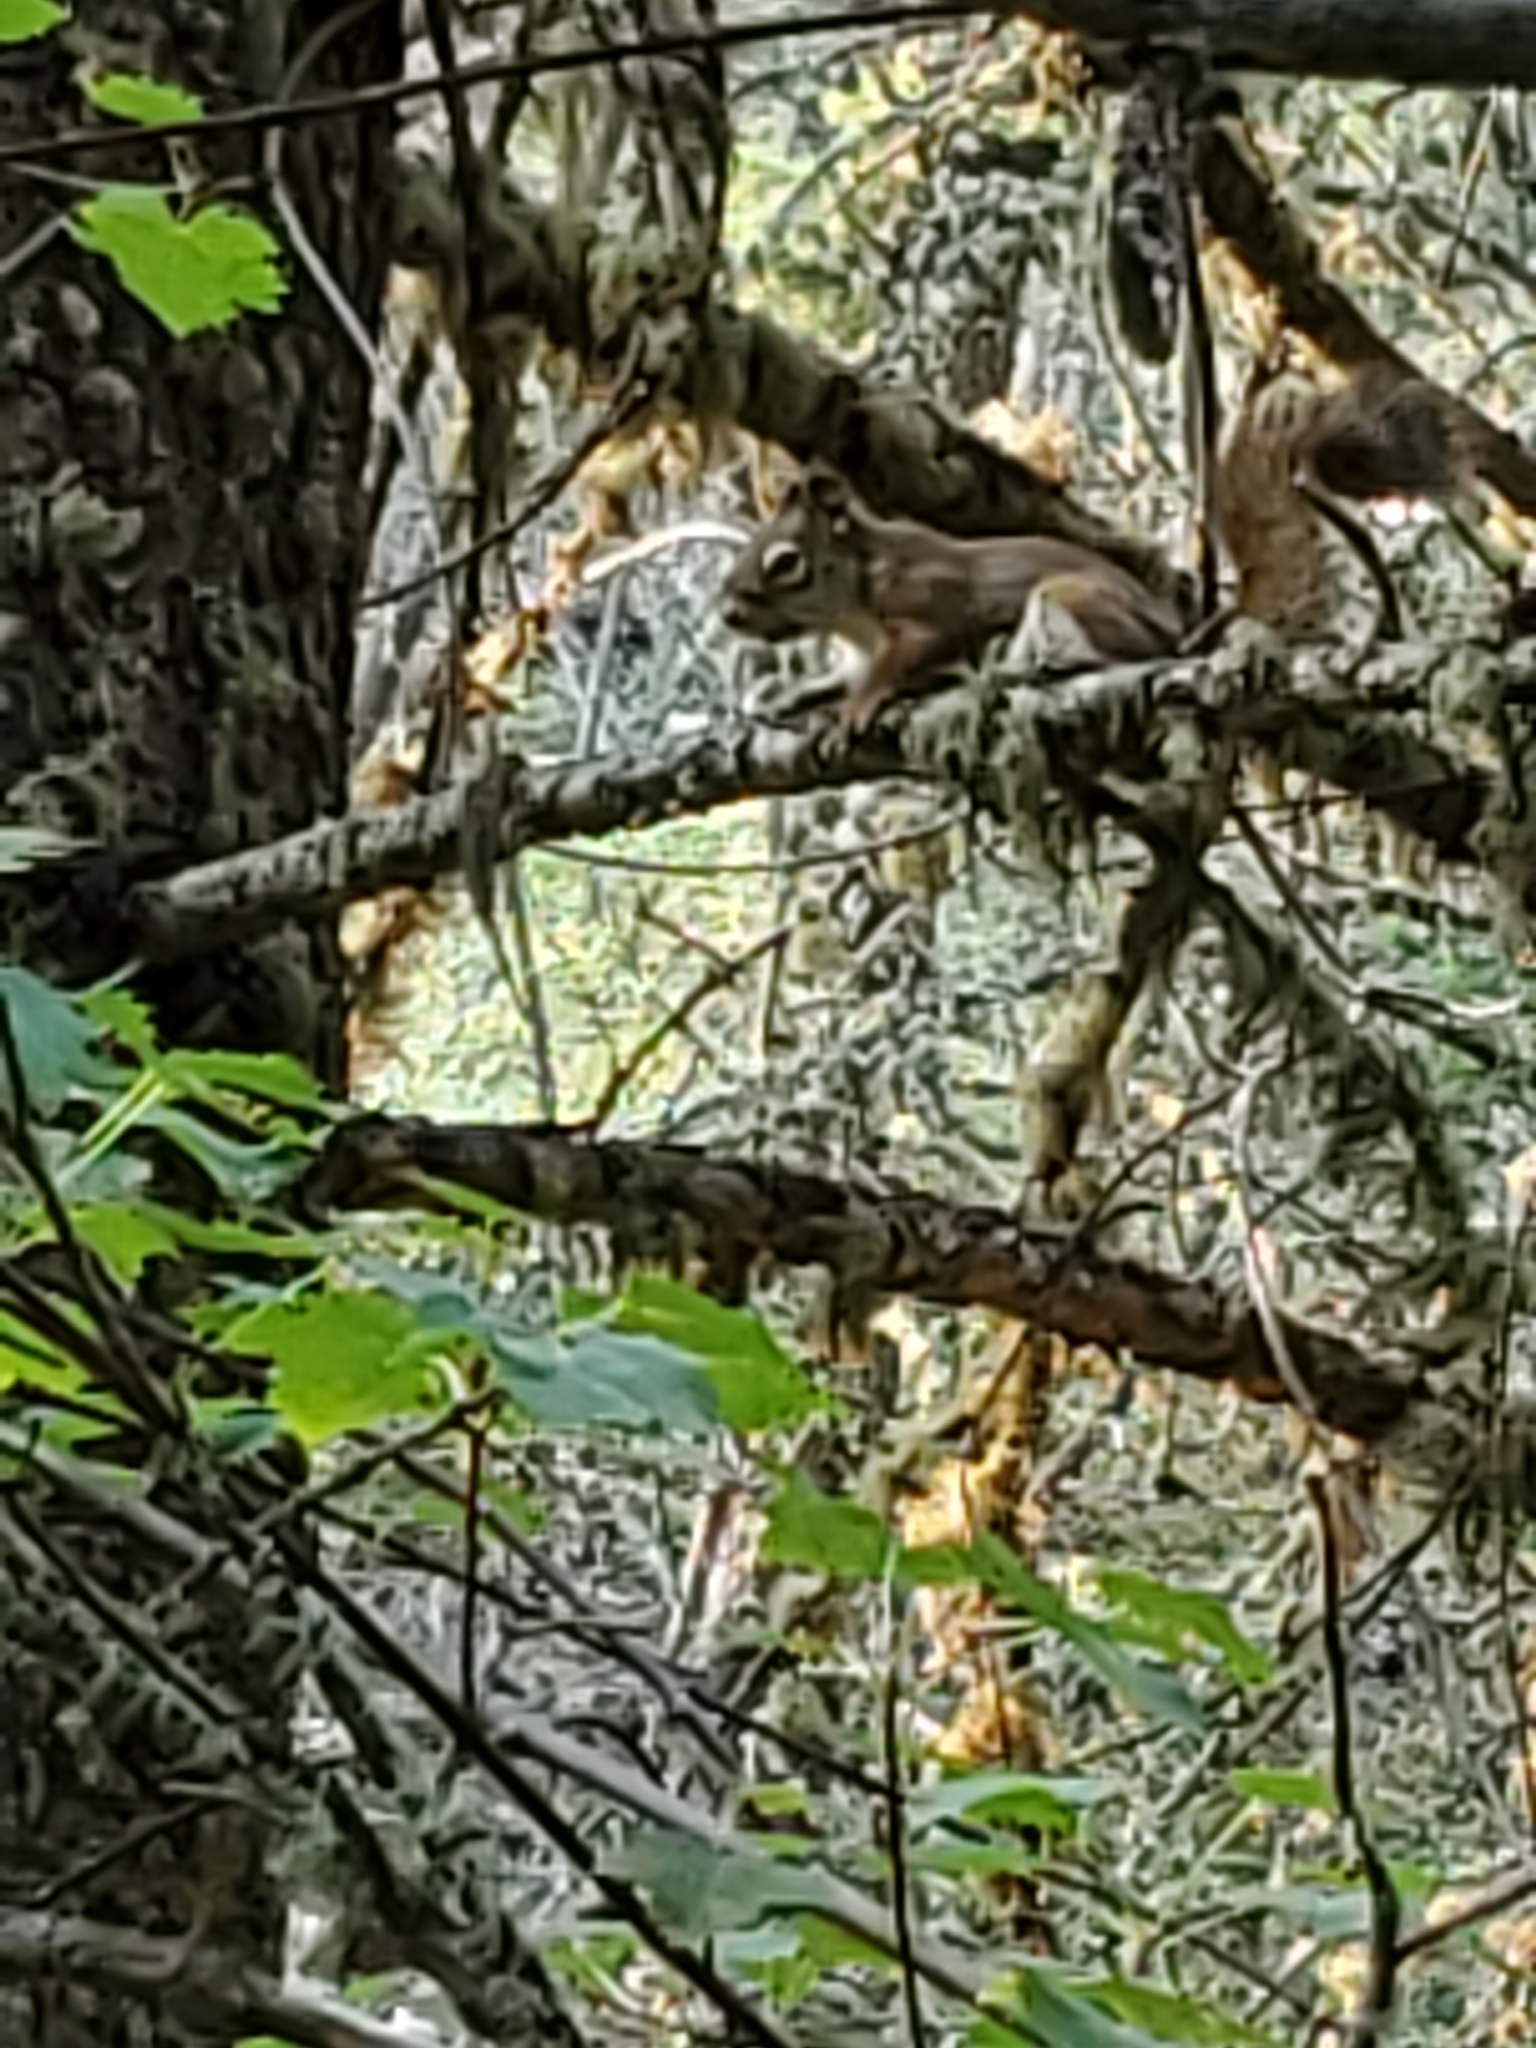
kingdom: Animalia
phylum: Chordata
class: Mammalia
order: Rodentia
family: Sciuridae
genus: Tamiasciurus
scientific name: Tamiasciurus hudsonicus
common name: Red squirrel
